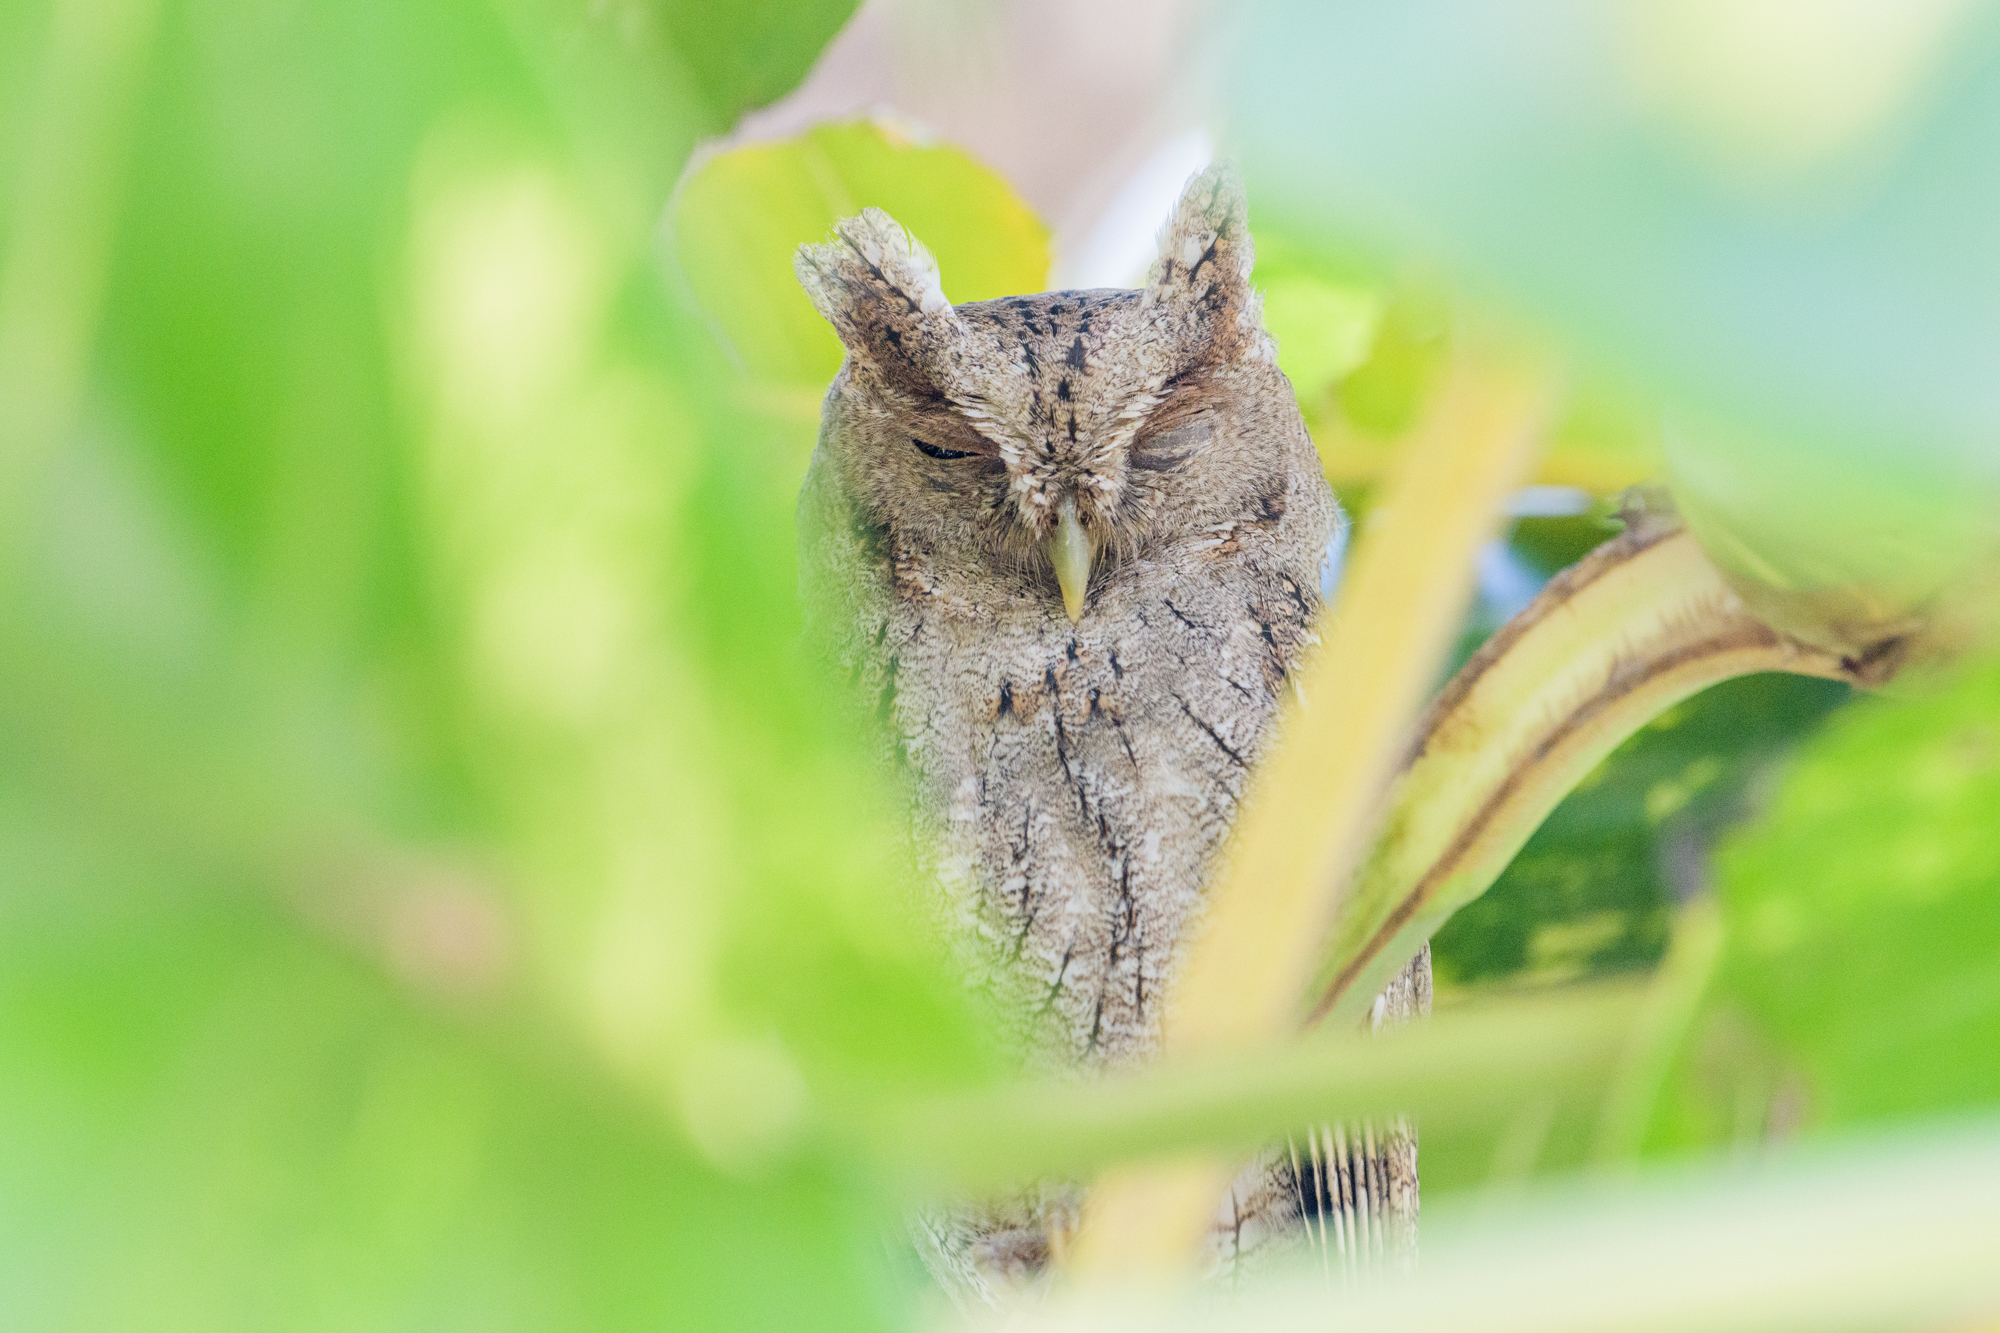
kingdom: Animalia
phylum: Chordata
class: Aves
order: Strigiformes
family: Strigidae
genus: Megascops
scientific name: Megascops cooperi
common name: Pacific screech-owl
